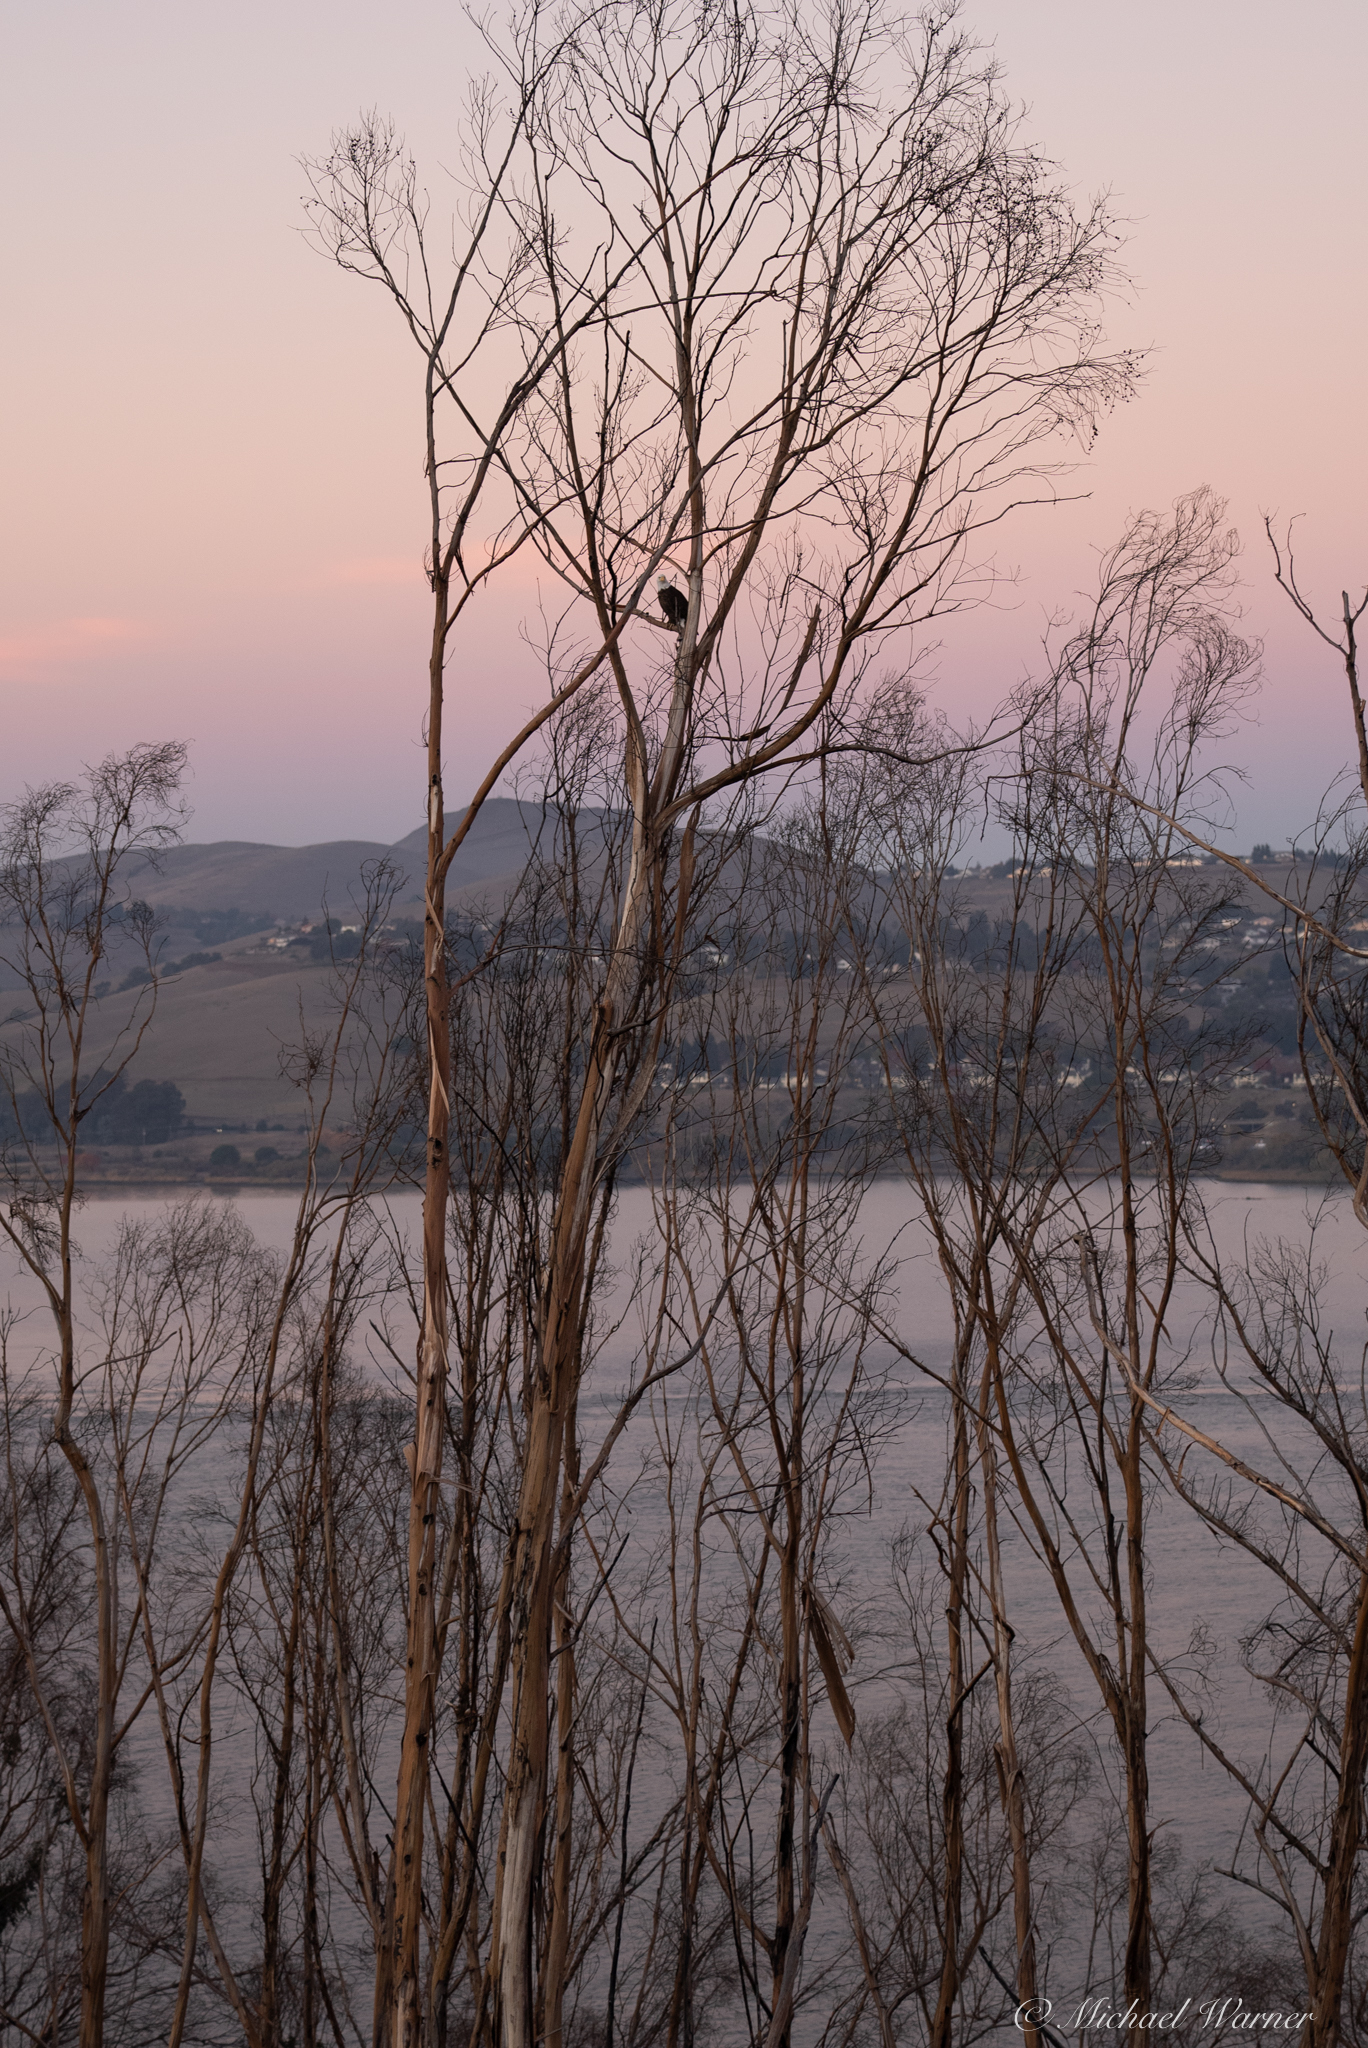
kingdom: Animalia
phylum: Chordata
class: Aves
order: Accipitriformes
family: Accipitridae
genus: Haliaeetus
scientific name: Haliaeetus leucocephalus
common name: Bald eagle
